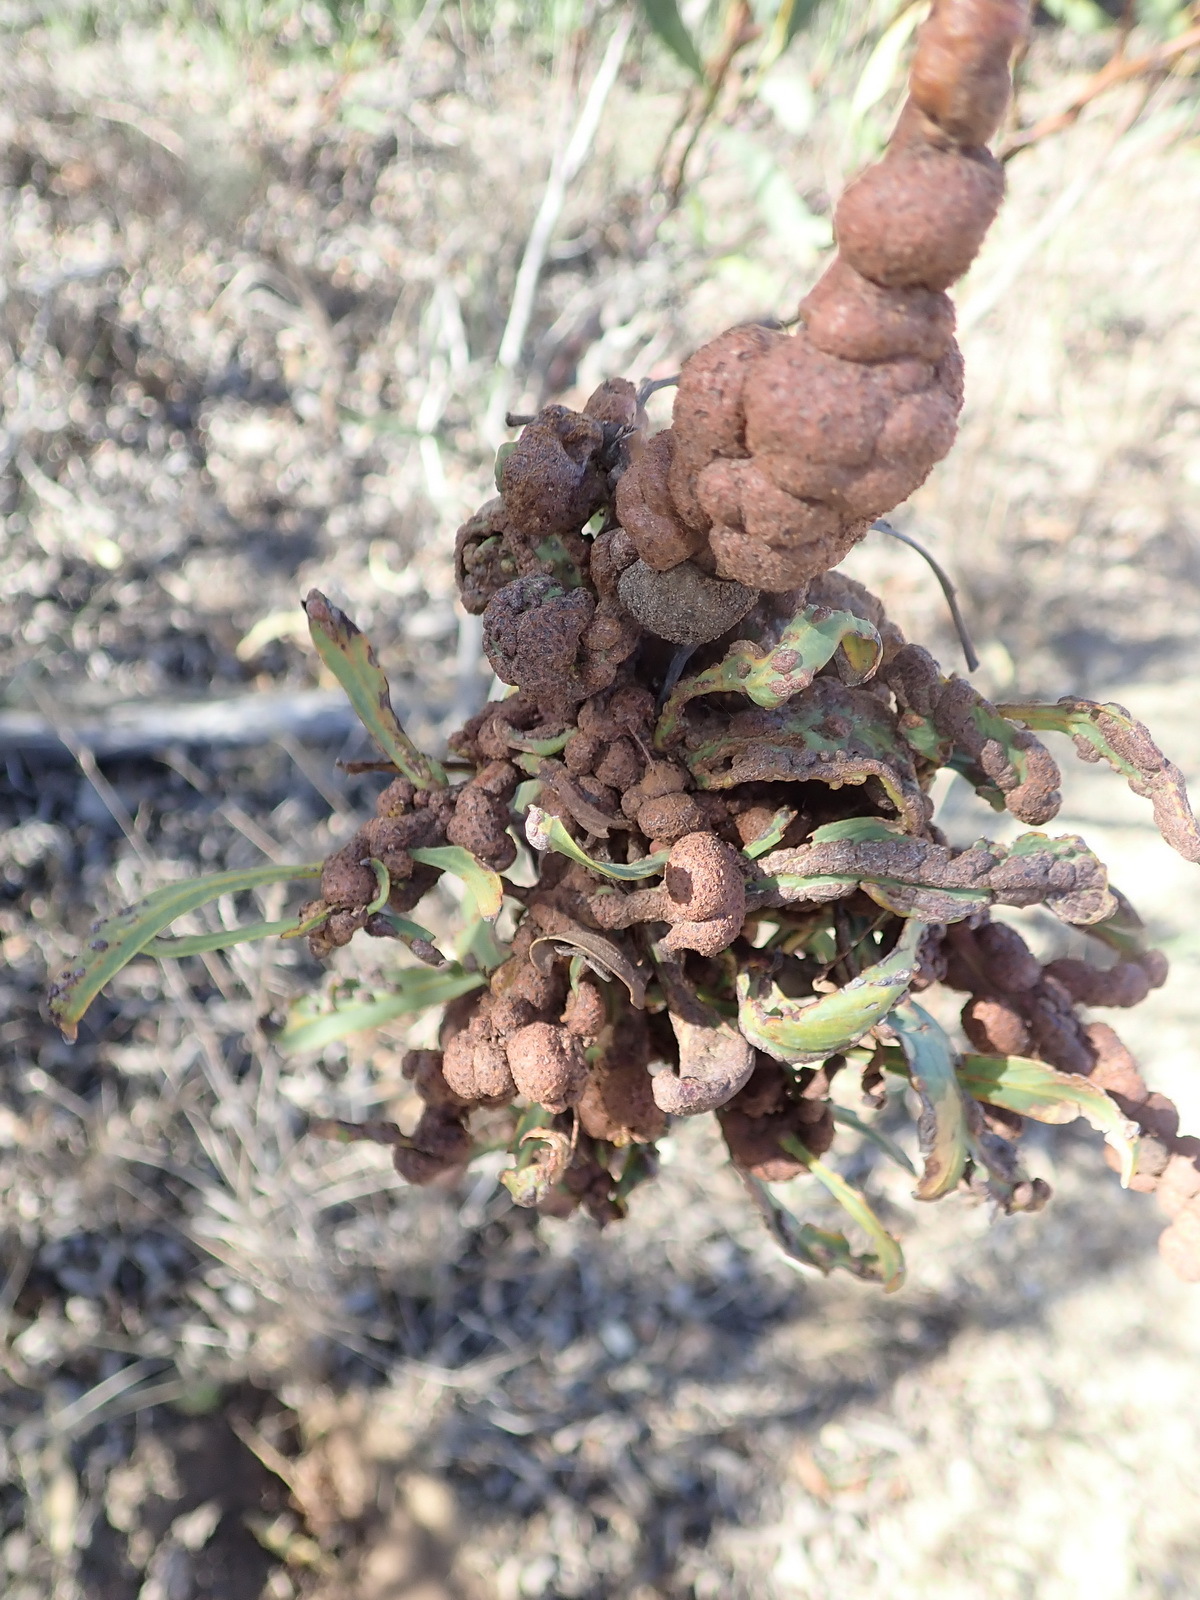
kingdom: Fungi
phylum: Basidiomycota
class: Pucciniomycetes
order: Pucciniales
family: Uromycladiaceae
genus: Uromycladium
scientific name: Uromycladium morrisii
